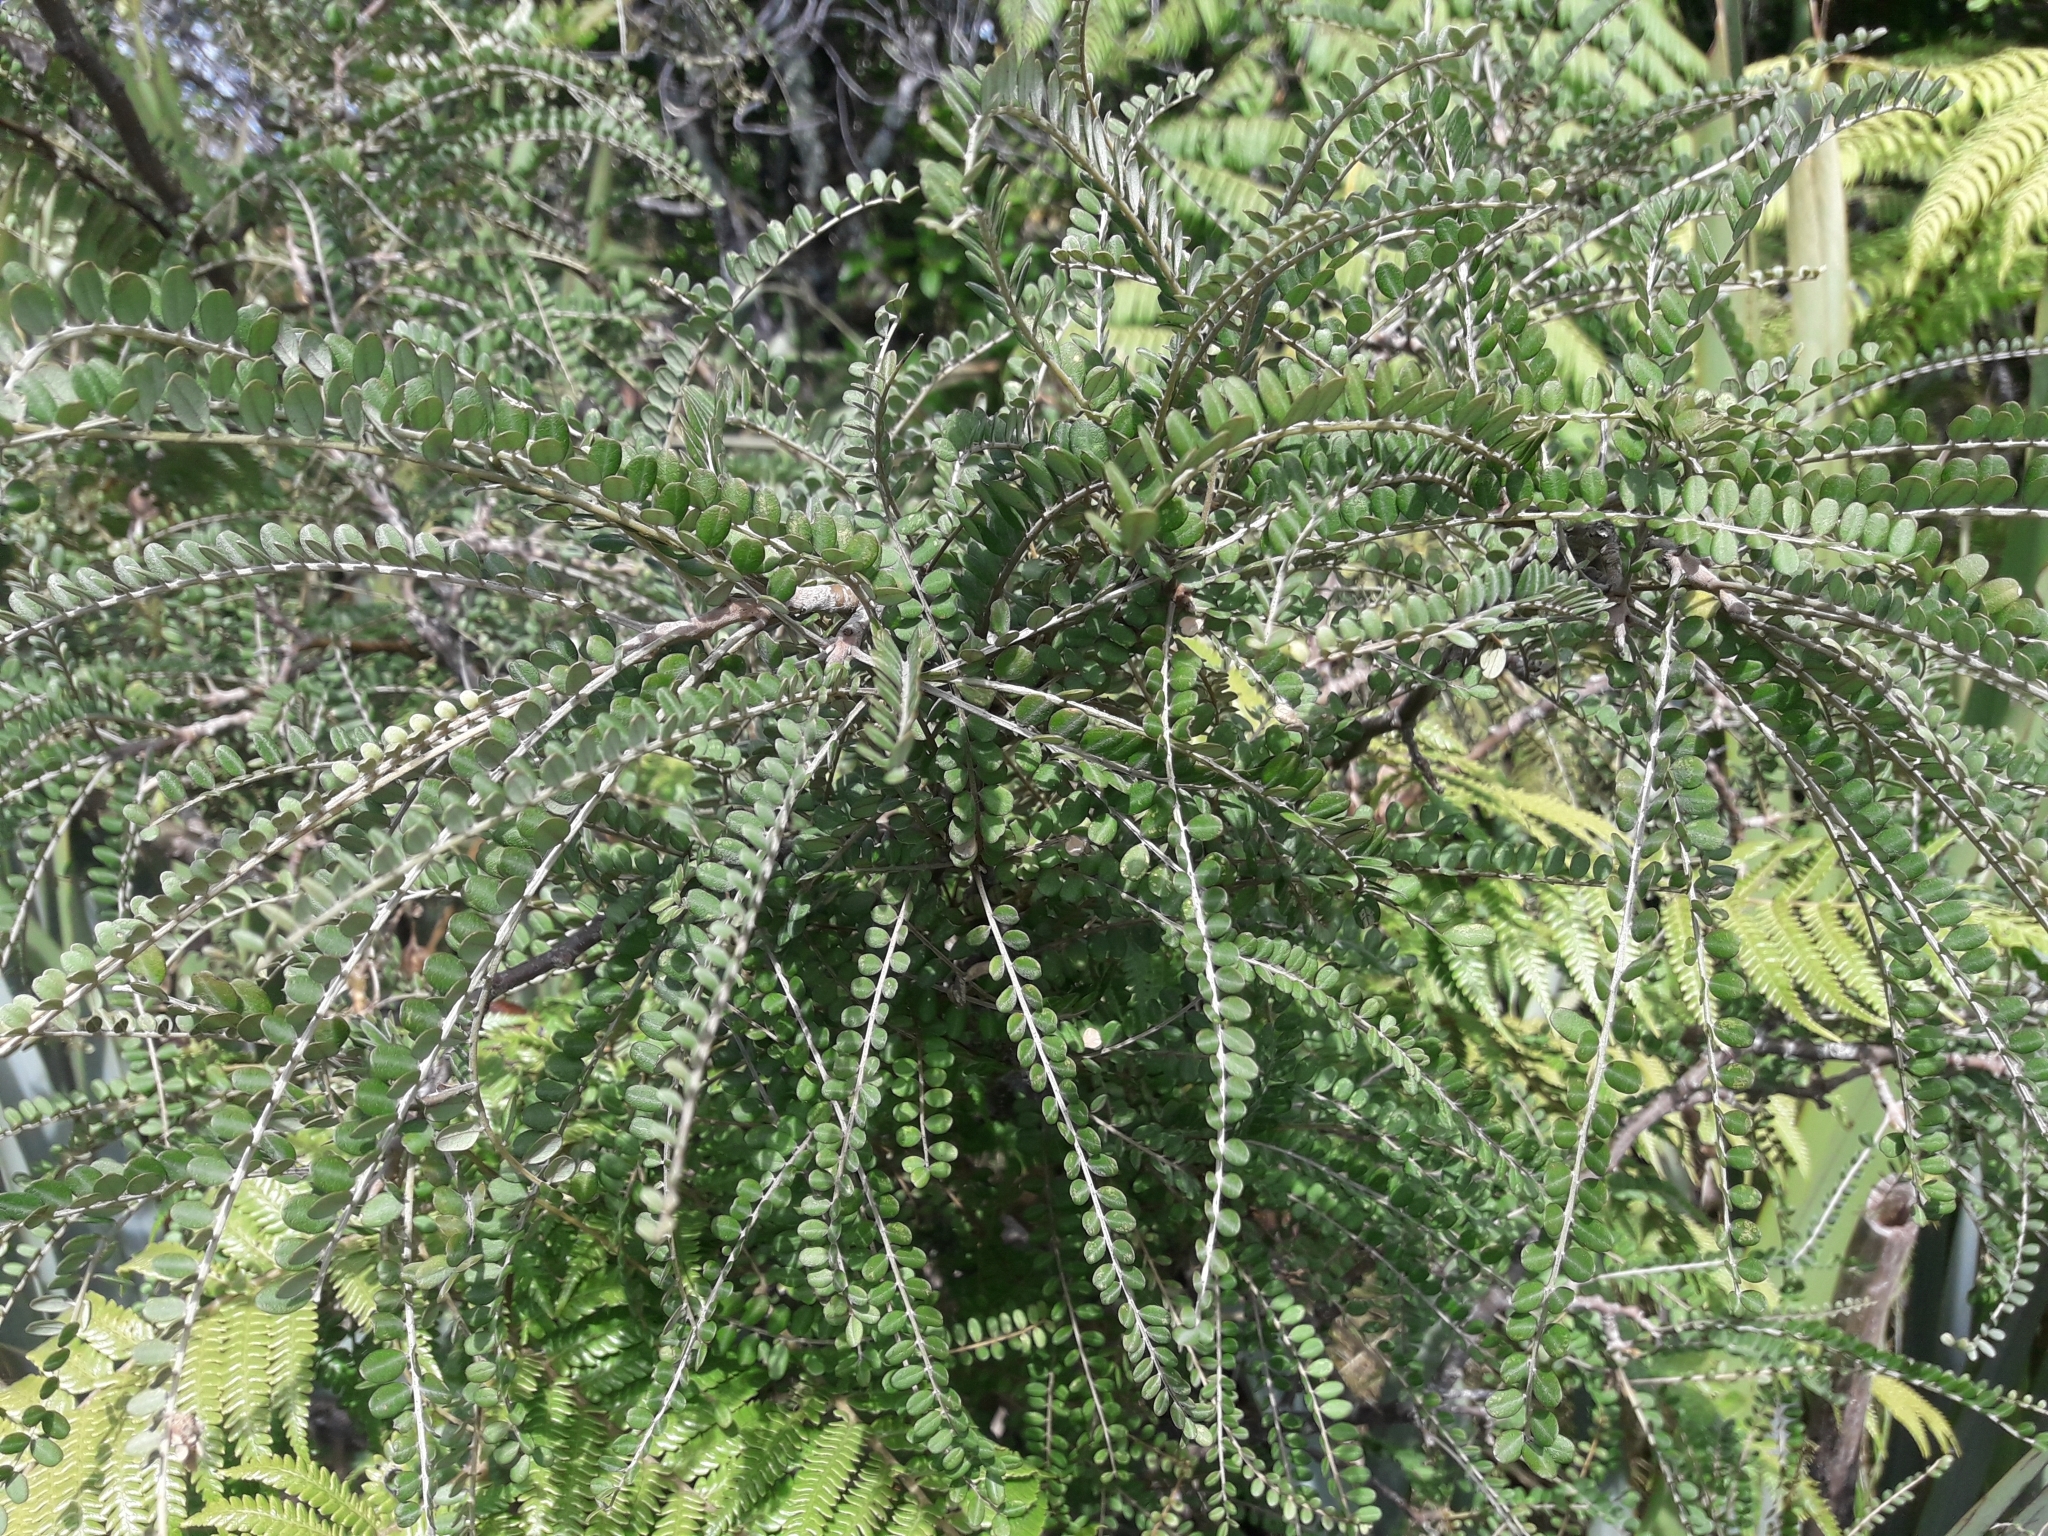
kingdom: Plantae
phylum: Tracheophyta
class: Magnoliopsida
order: Fabales
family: Fabaceae
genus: Sophora
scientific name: Sophora microphylla
